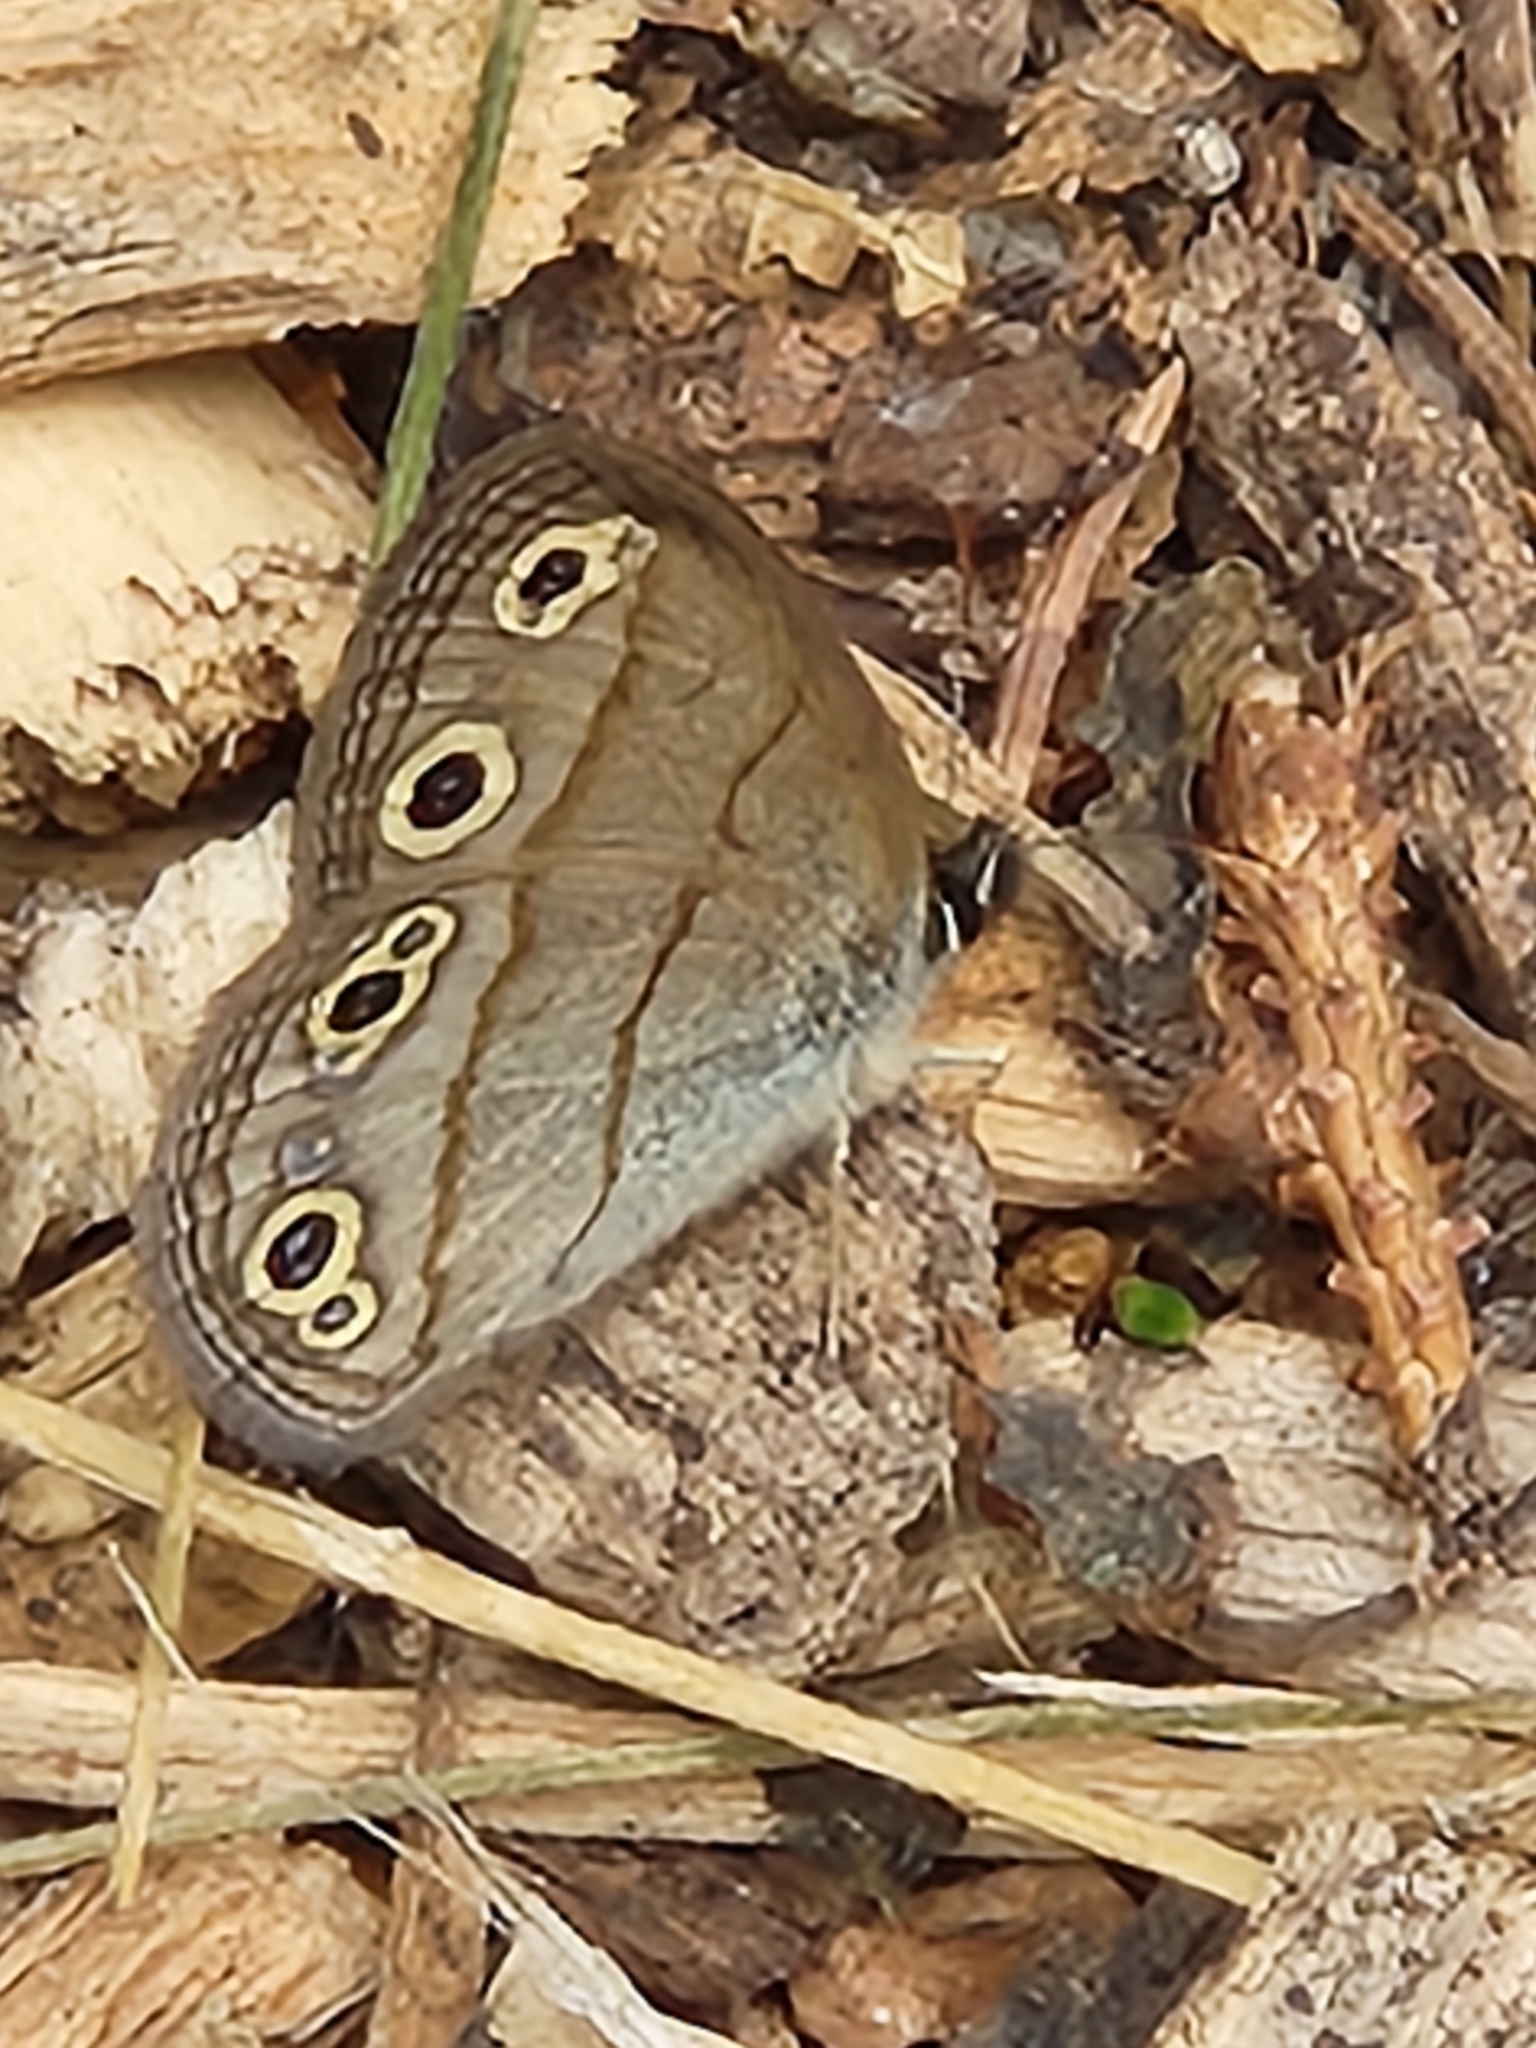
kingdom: Animalia
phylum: Arthropoda
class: Insecta
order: Lepidoptera
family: Nymphalidae
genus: Euptychia
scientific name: Euptychia cymela
